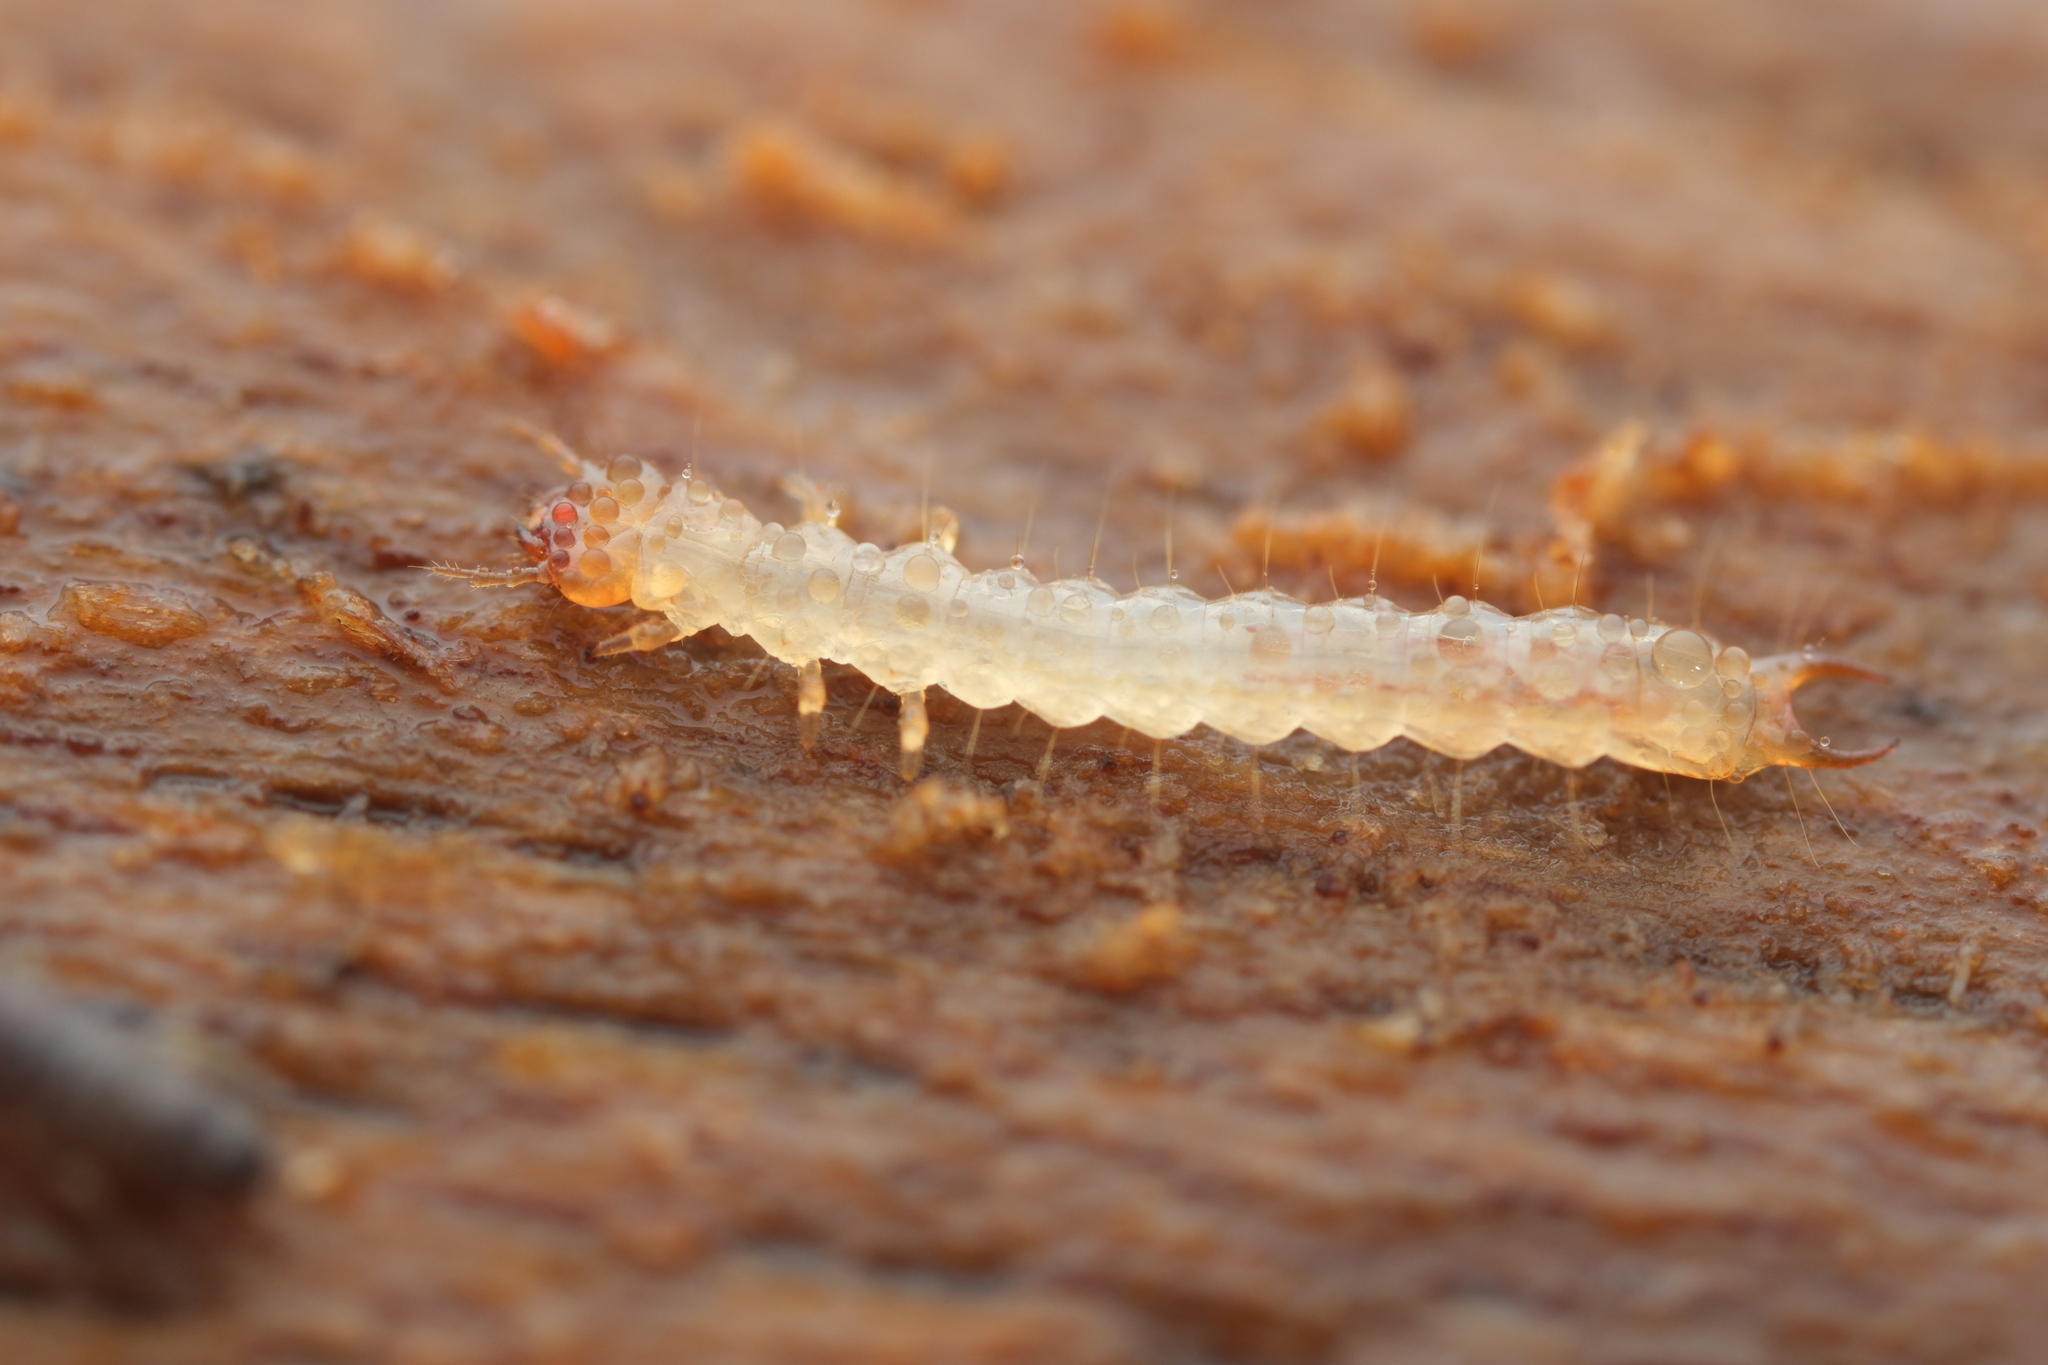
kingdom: Animalia
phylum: Arthropoda
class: Insecta
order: Coleoptera
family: Pyrochroidae
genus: Schizotus
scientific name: Schizotus pectinicornis
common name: Scarce cardinal beetle
